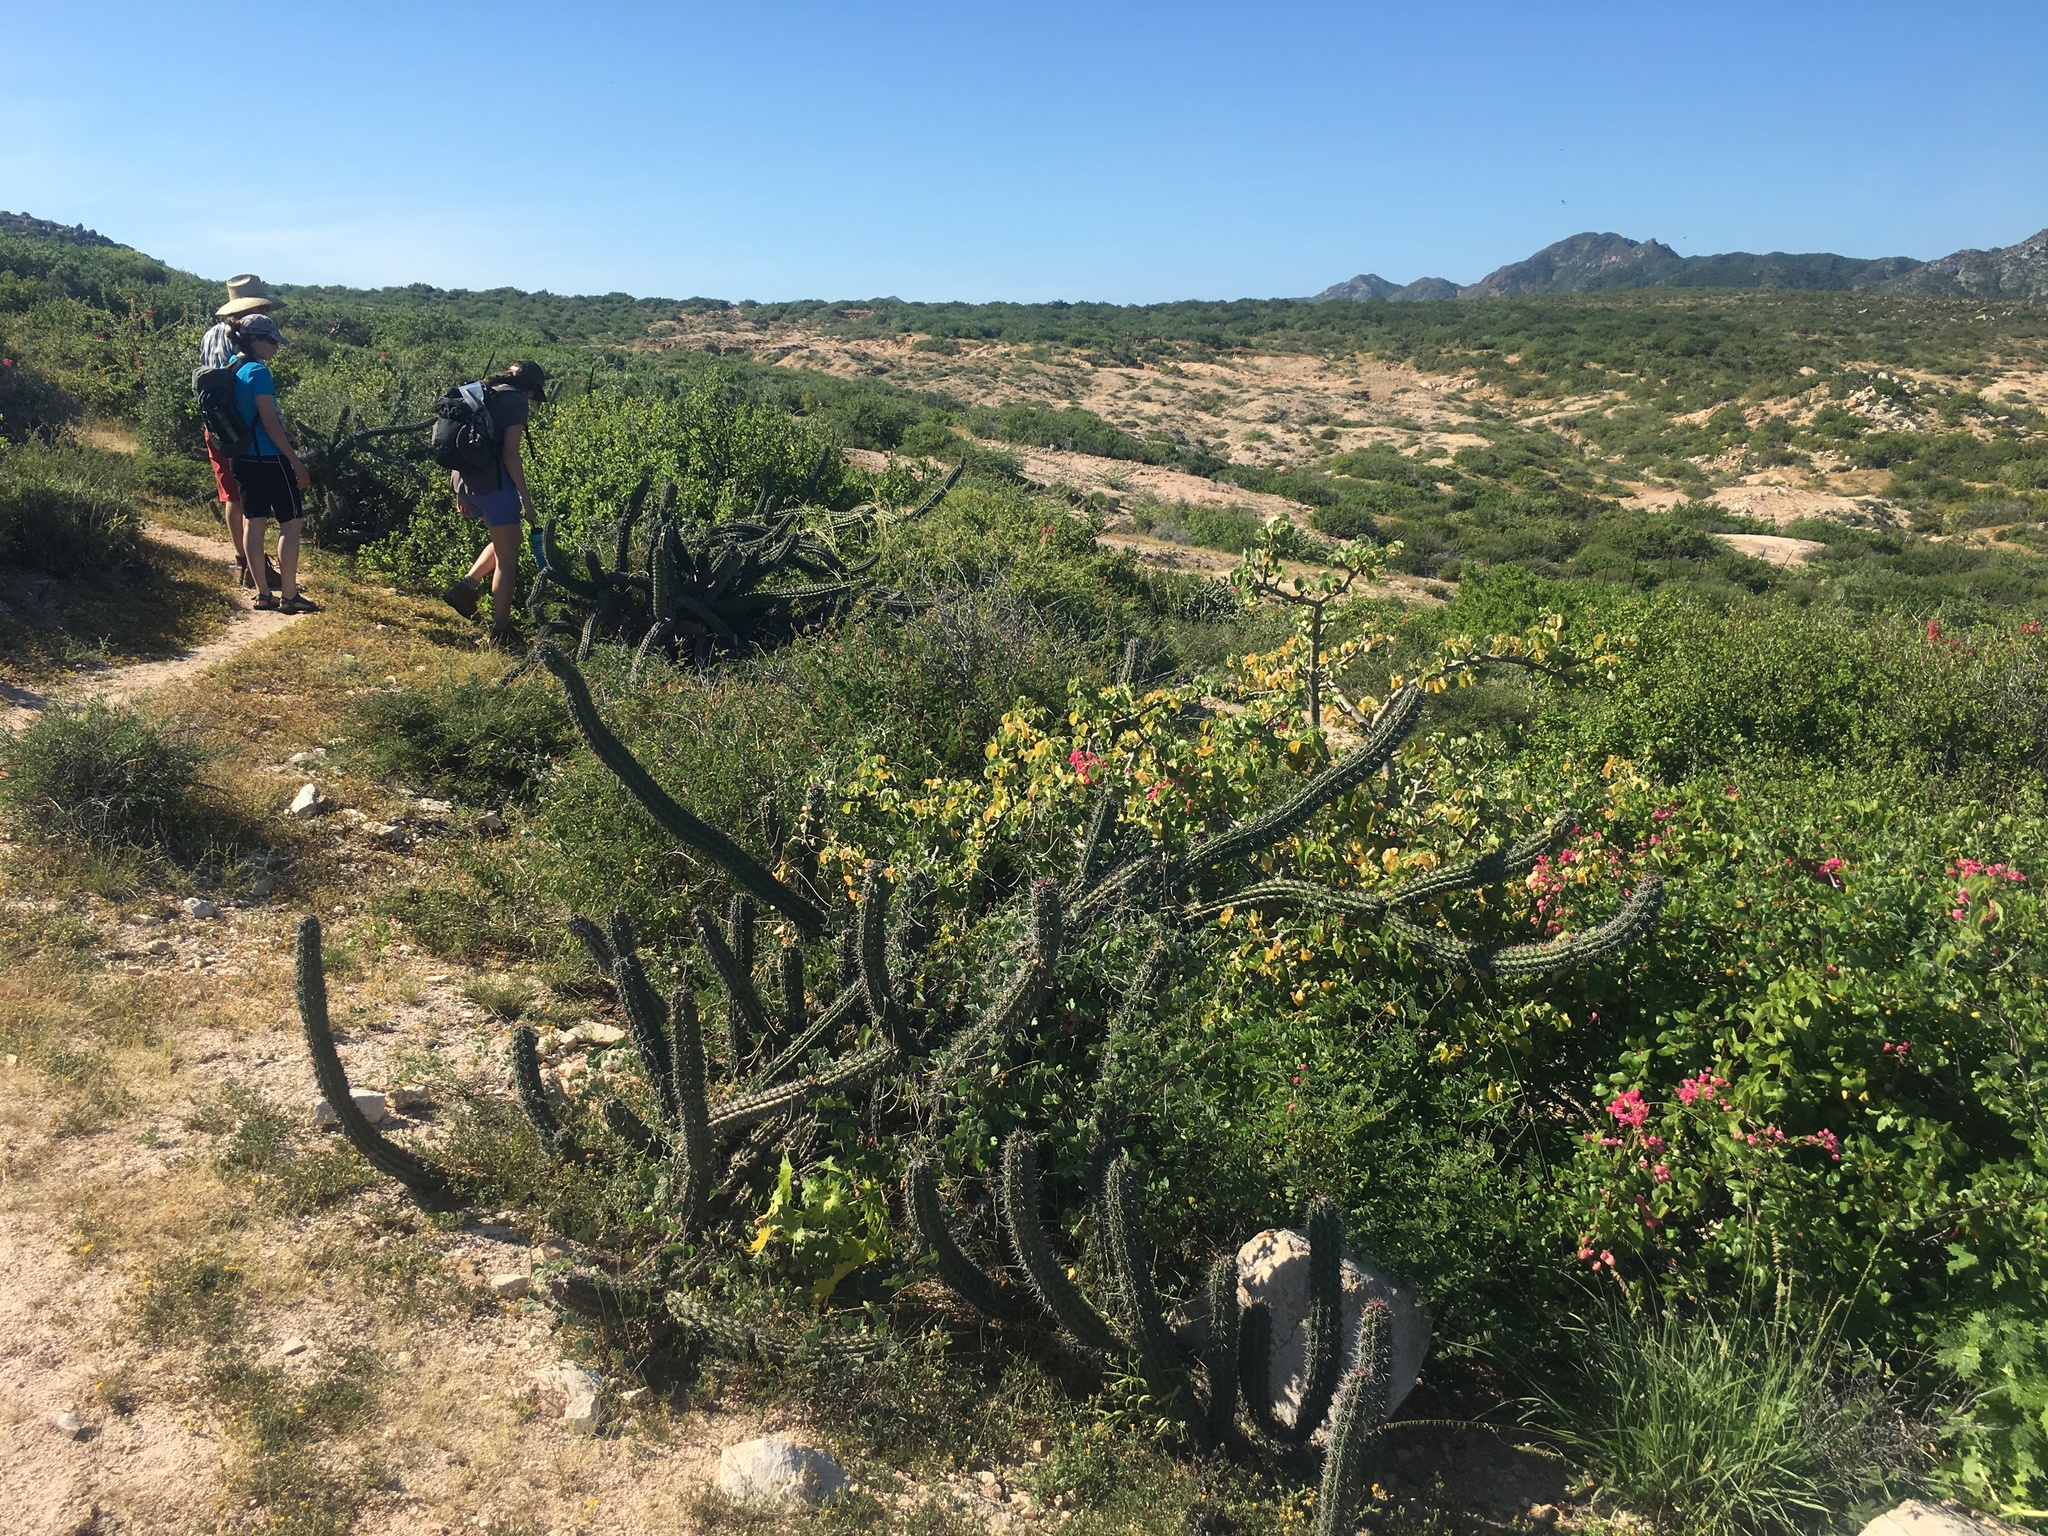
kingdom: Plantae
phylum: Tracheophyta
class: Magnoliopsida
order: Caryophyllales
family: Cactaceae
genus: Stenocereus
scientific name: Stenocereus gummosus
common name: Dagger cactus
